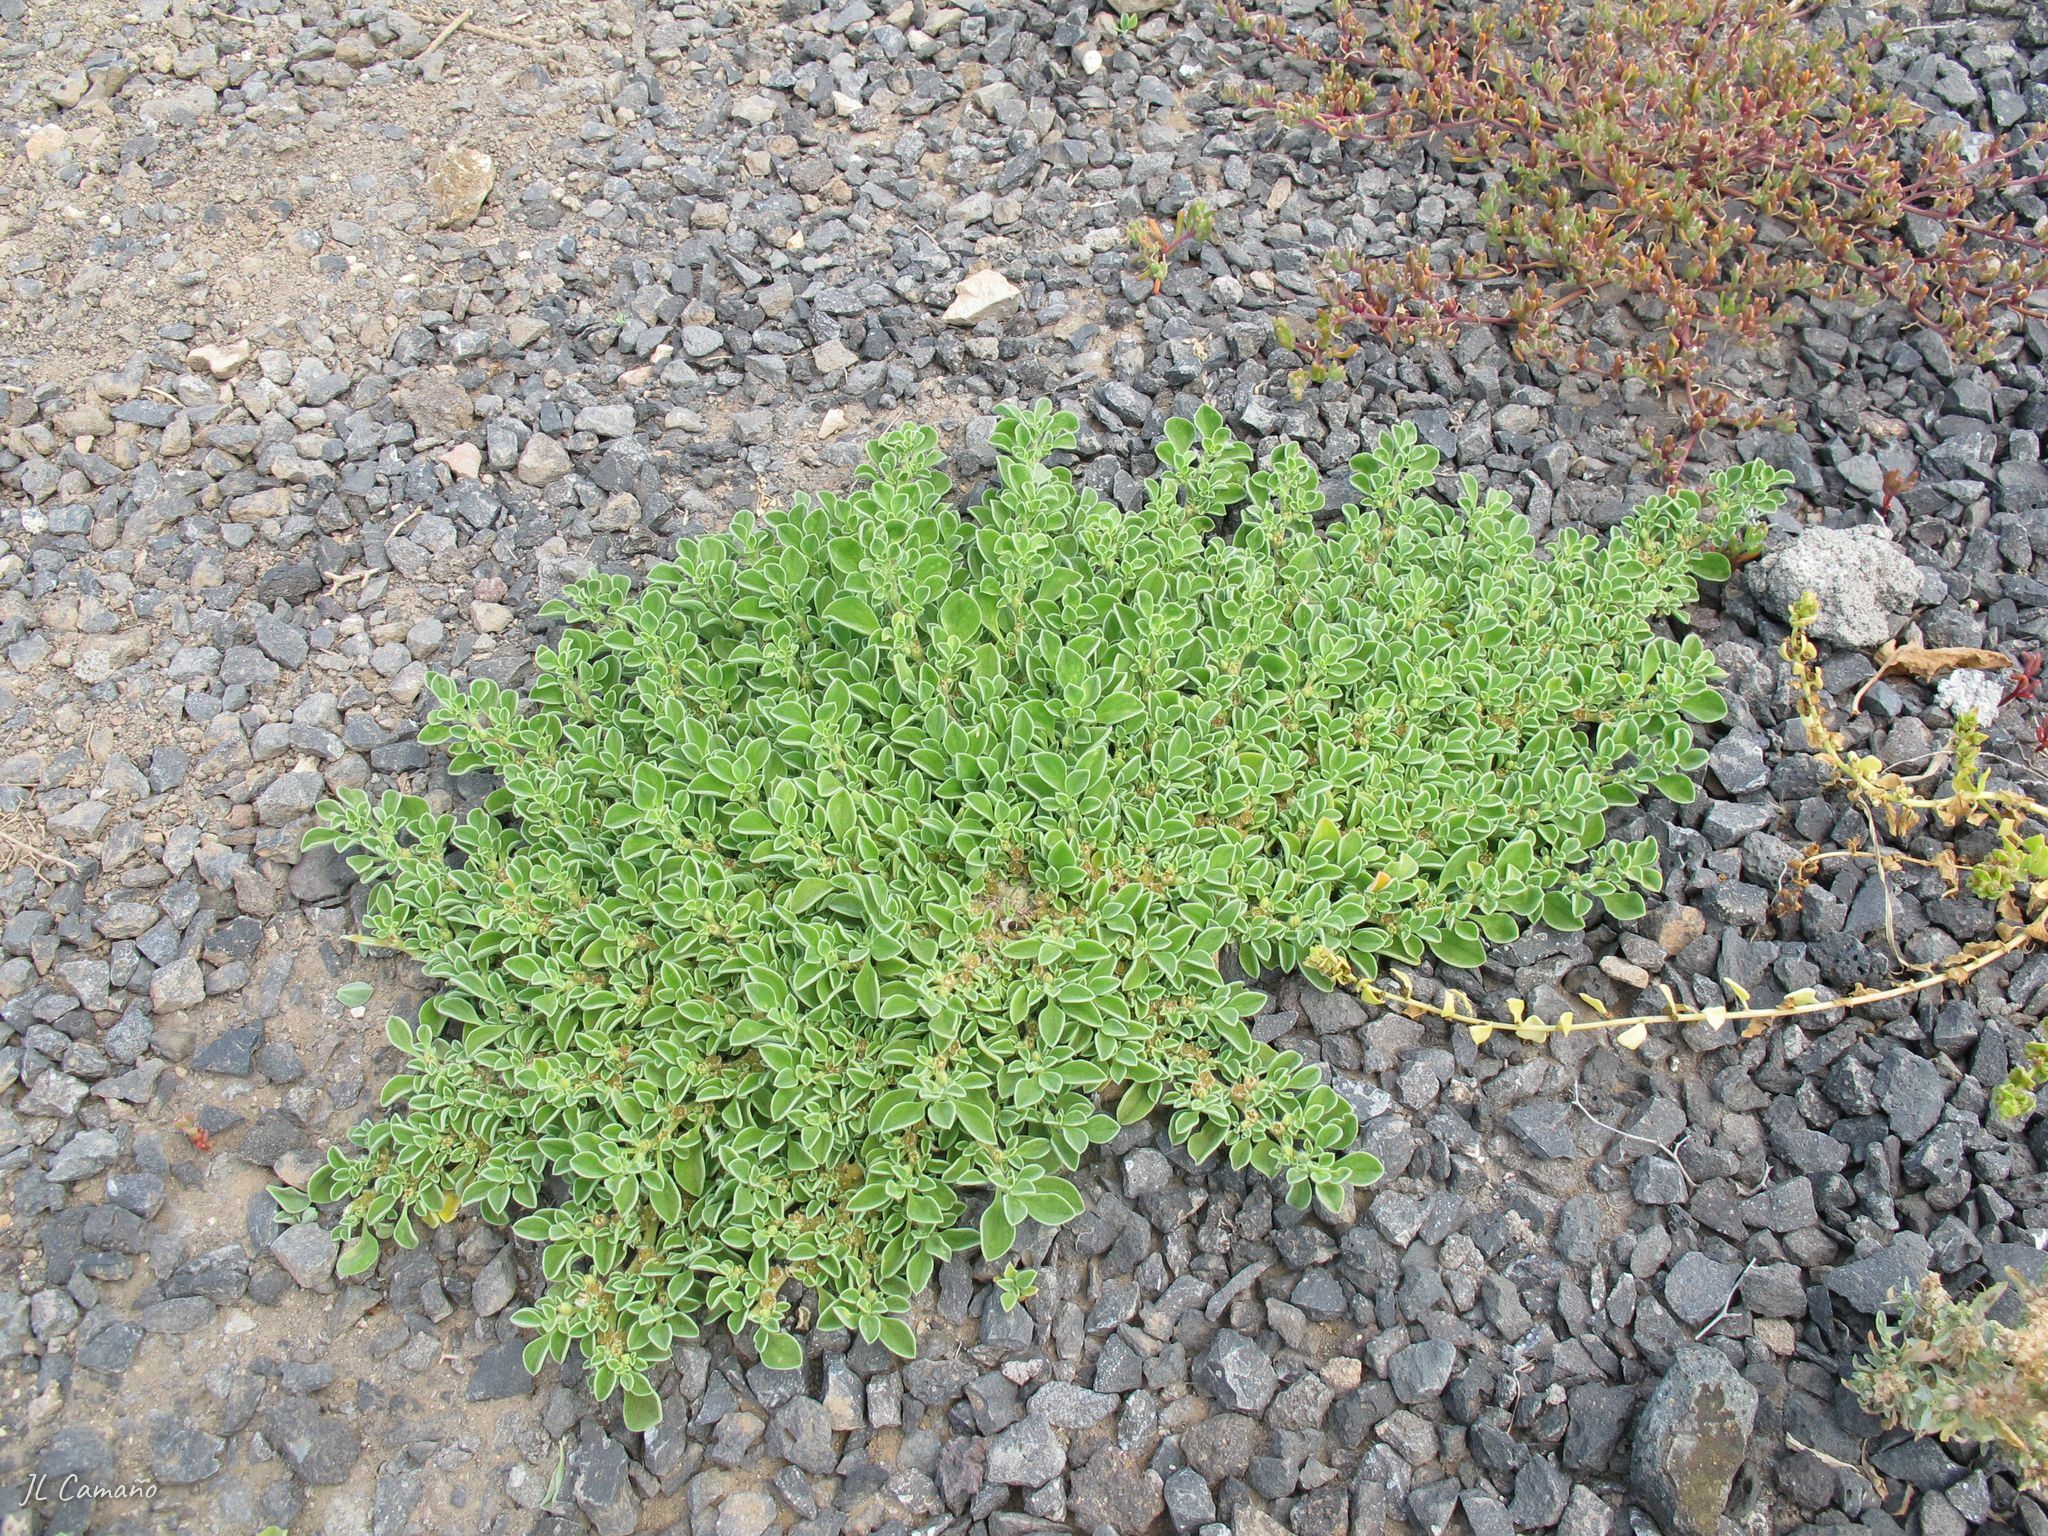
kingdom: Plantae
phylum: Tracheophyta
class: Magnoliopsida
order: Caryophyllales
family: Aizoaceae
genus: Aizoon
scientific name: Aizoon canariense
